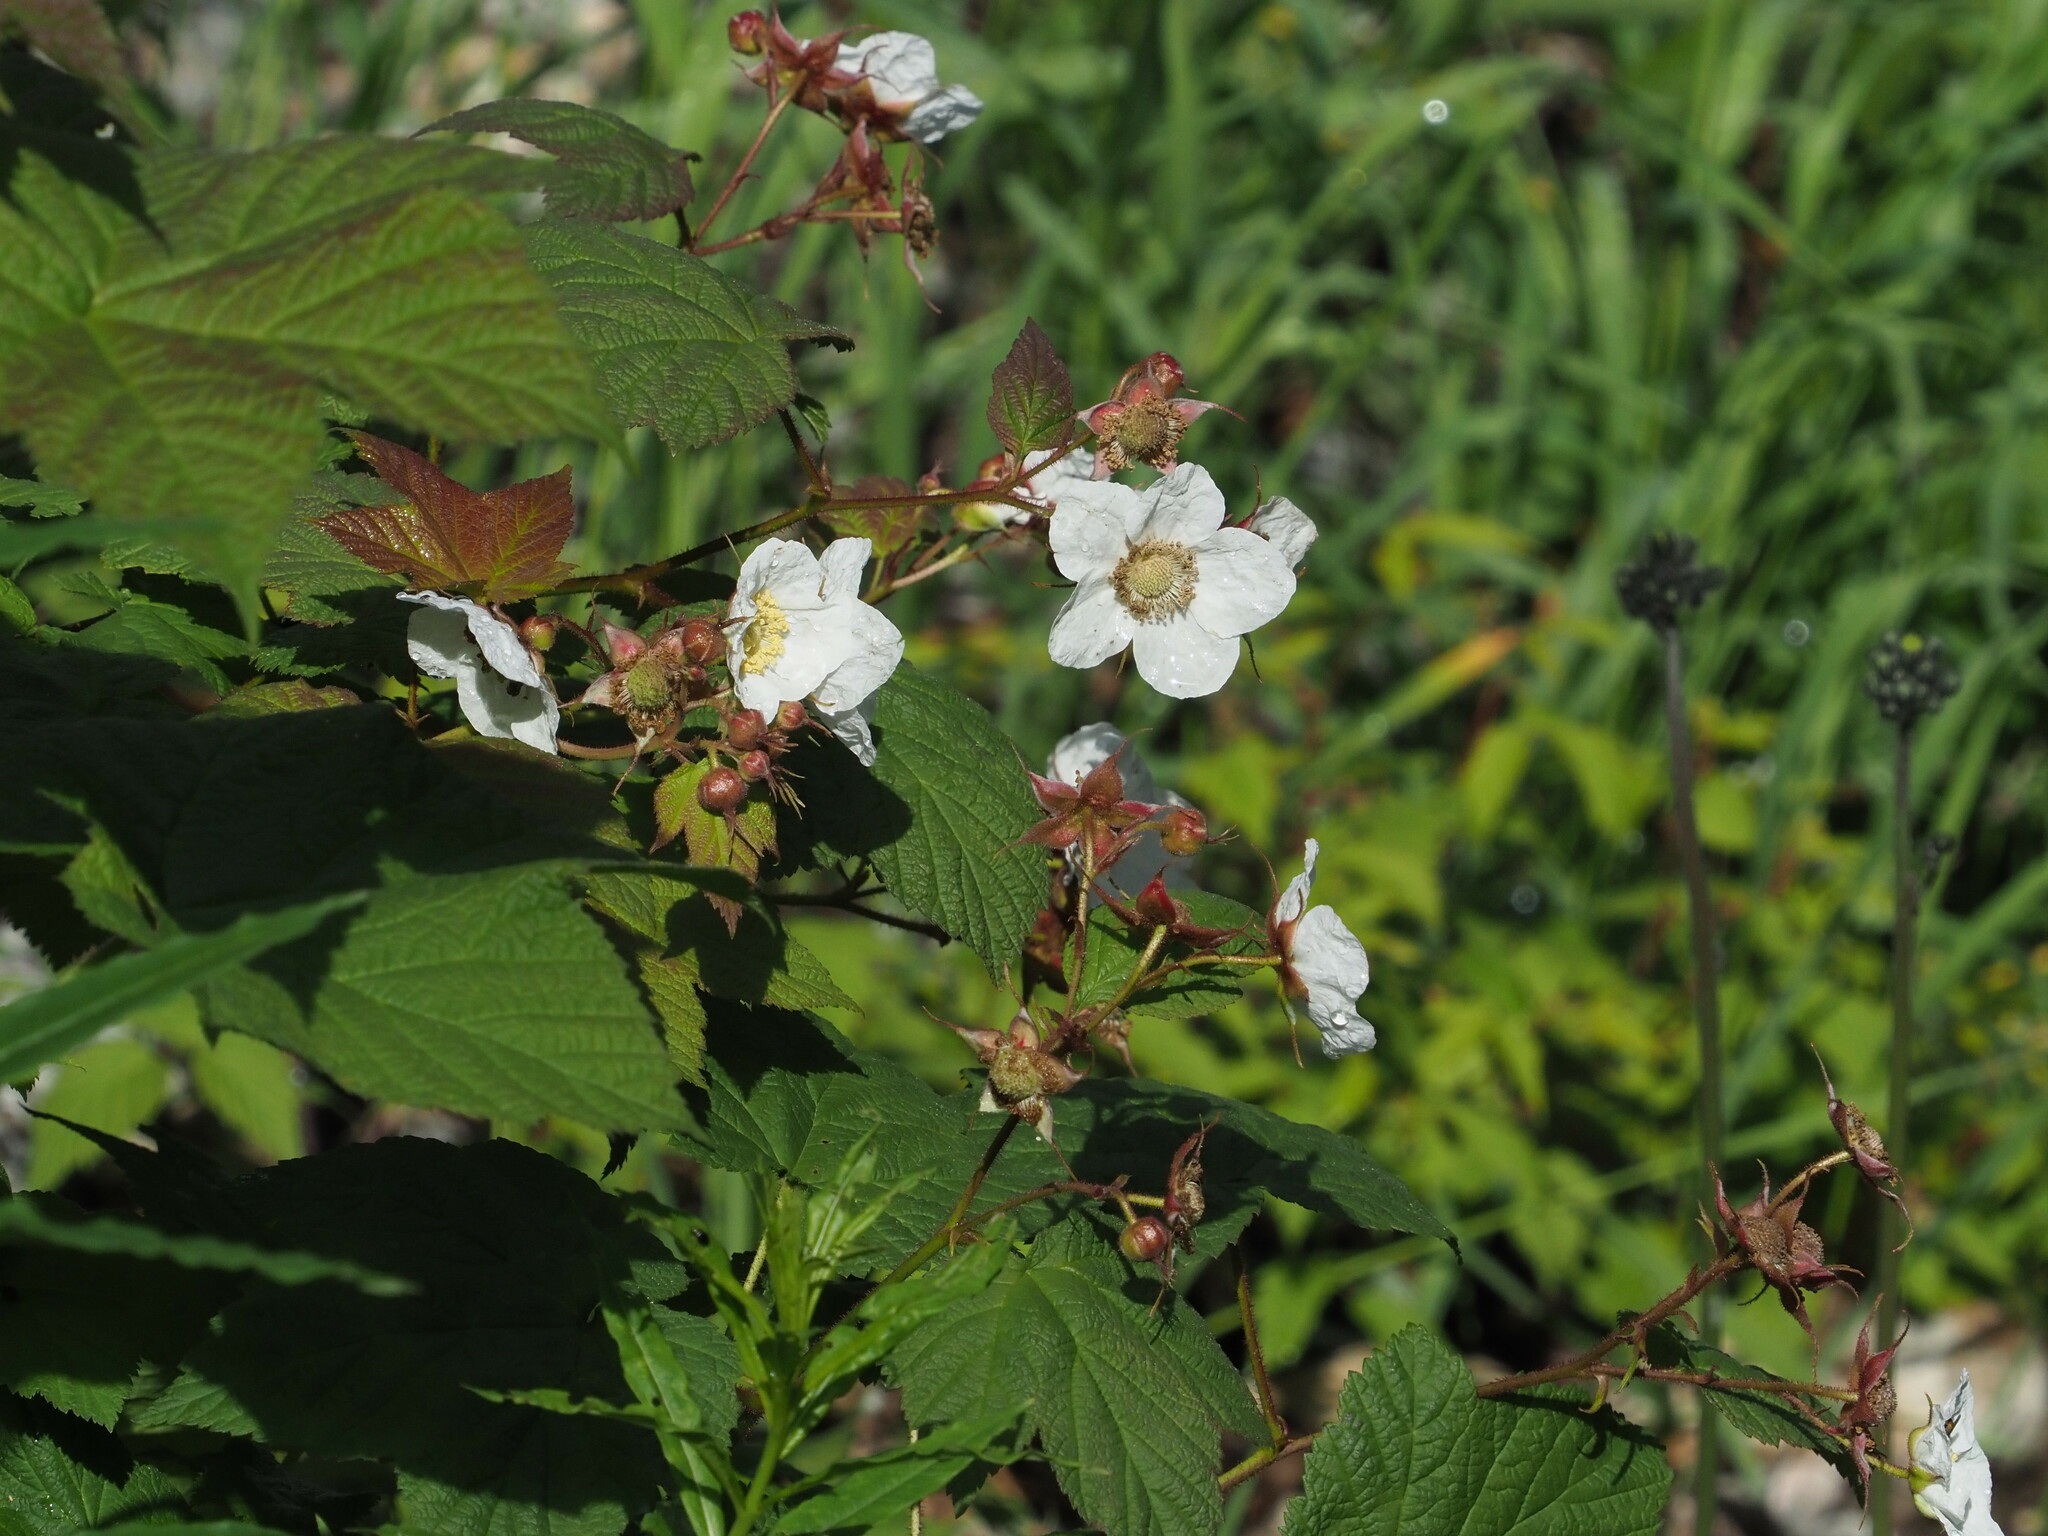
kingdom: Plantae
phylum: Tracheophyta
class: Magnoliopsida
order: Rosales
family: Rosaceae
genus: Rubus
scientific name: Rubus parviflorus
